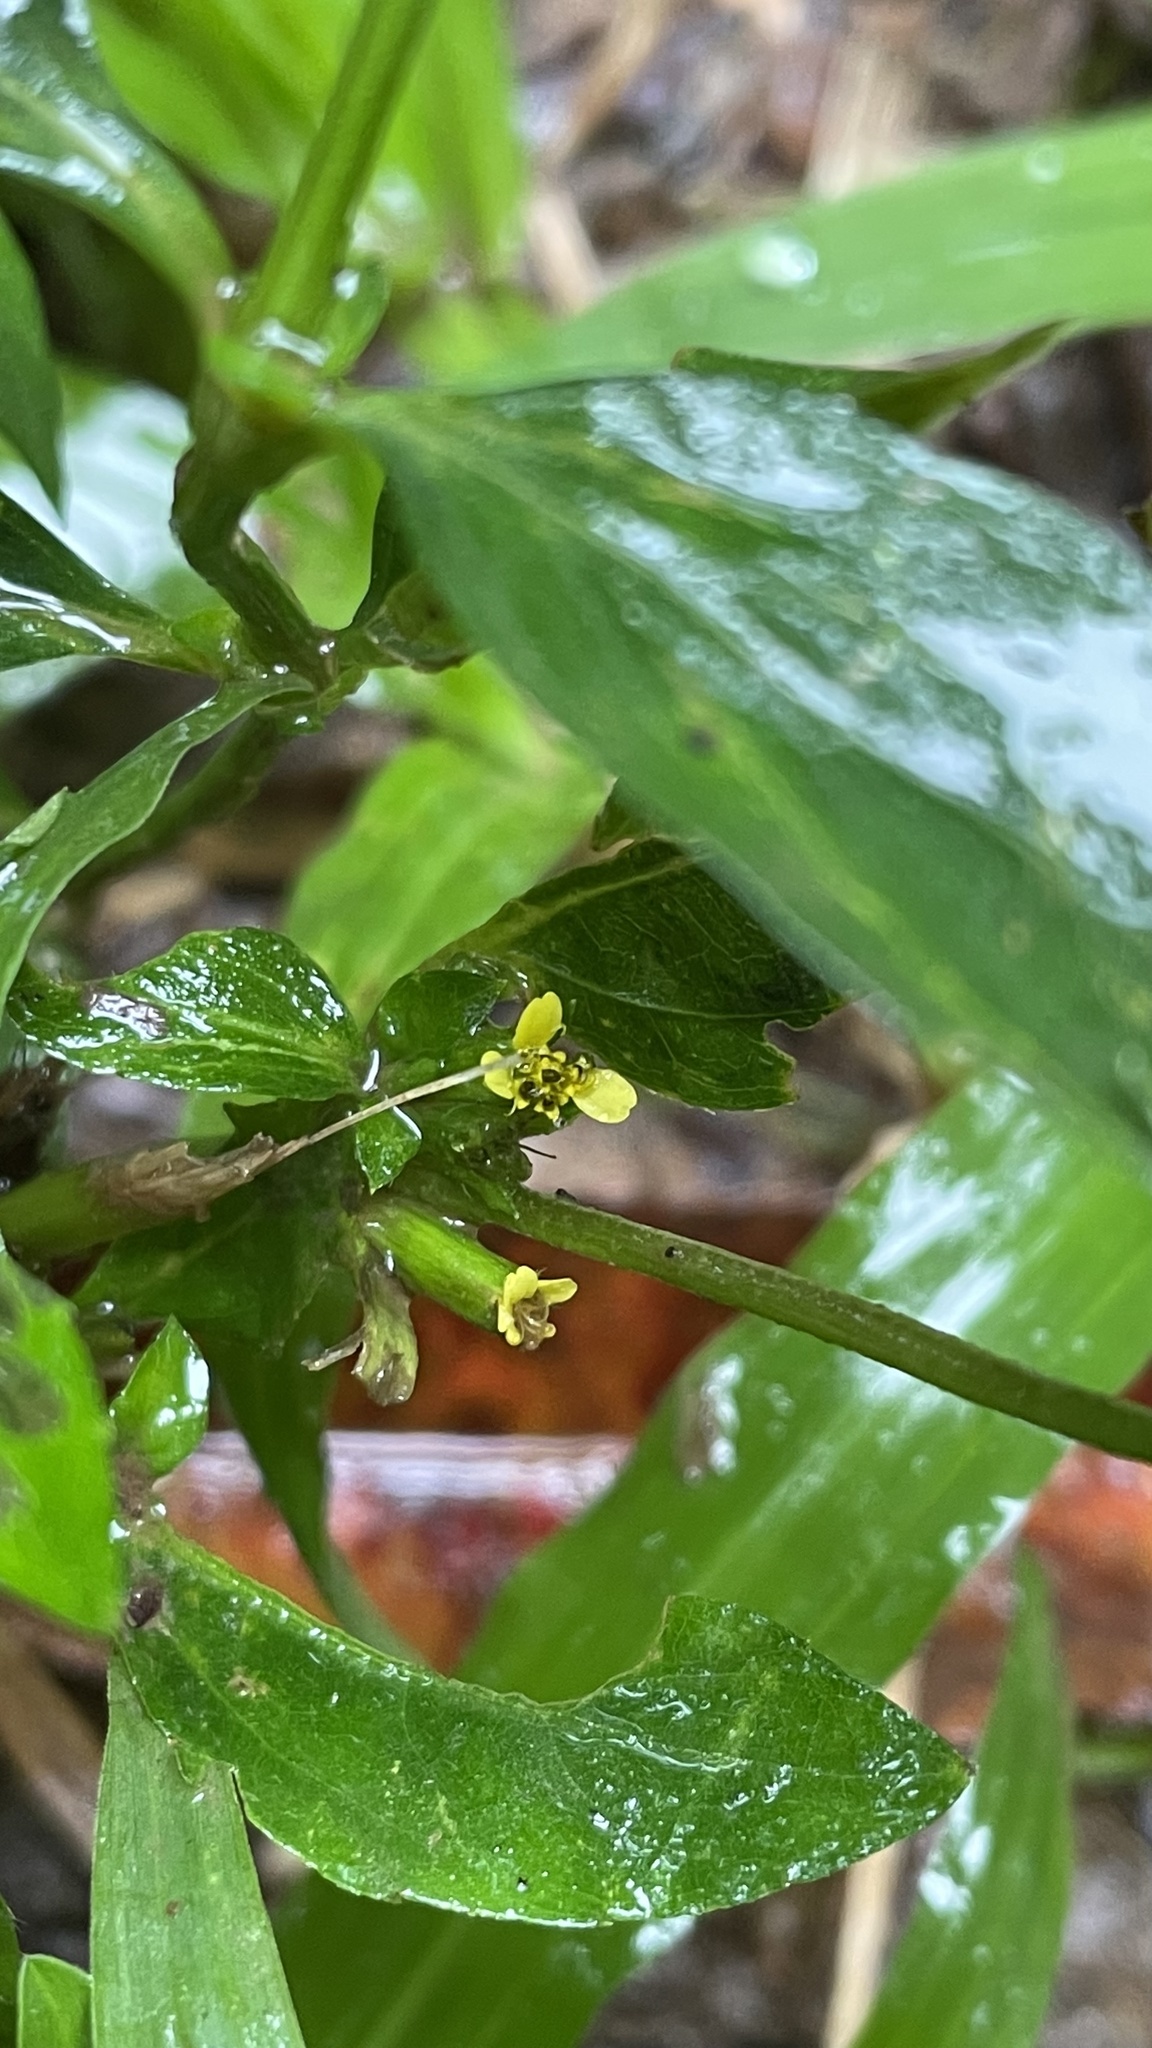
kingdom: Plantae
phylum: Tracheophyta
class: Magnoliopsida
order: Asterales
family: Asteraceae
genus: Synedrella
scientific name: Synedrella nodiflora
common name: Nodeweed
